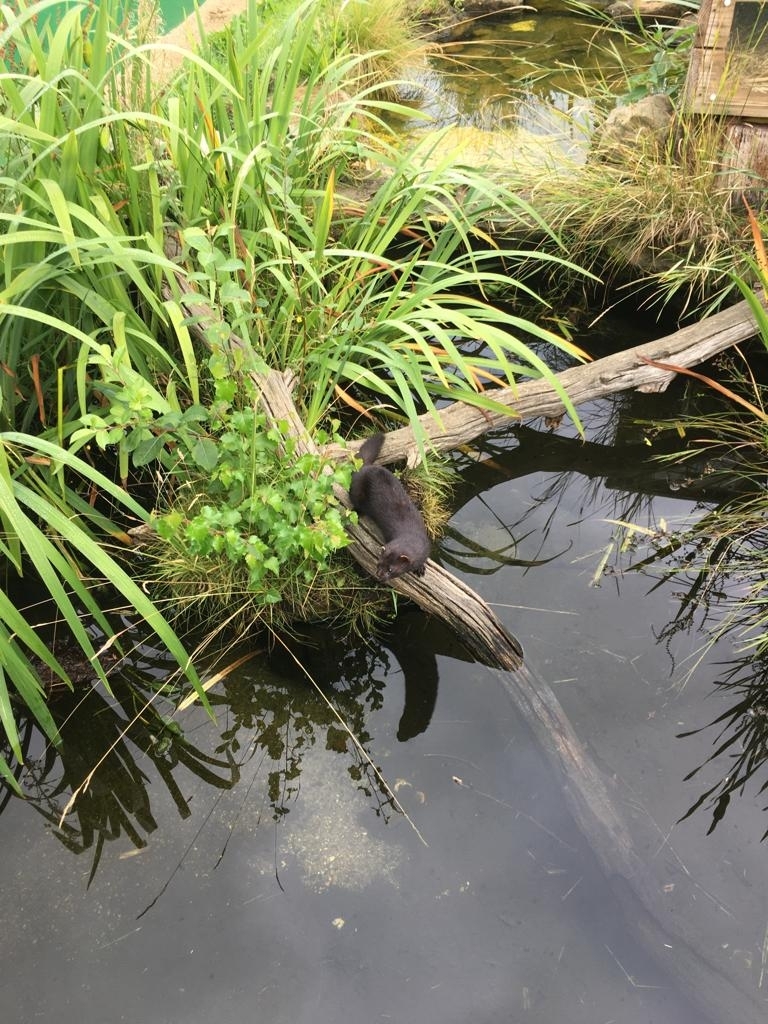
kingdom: Animalia
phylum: Chordata
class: Mammalia
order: Carnivora
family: Mustelidae
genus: Mustela
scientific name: Mustela
